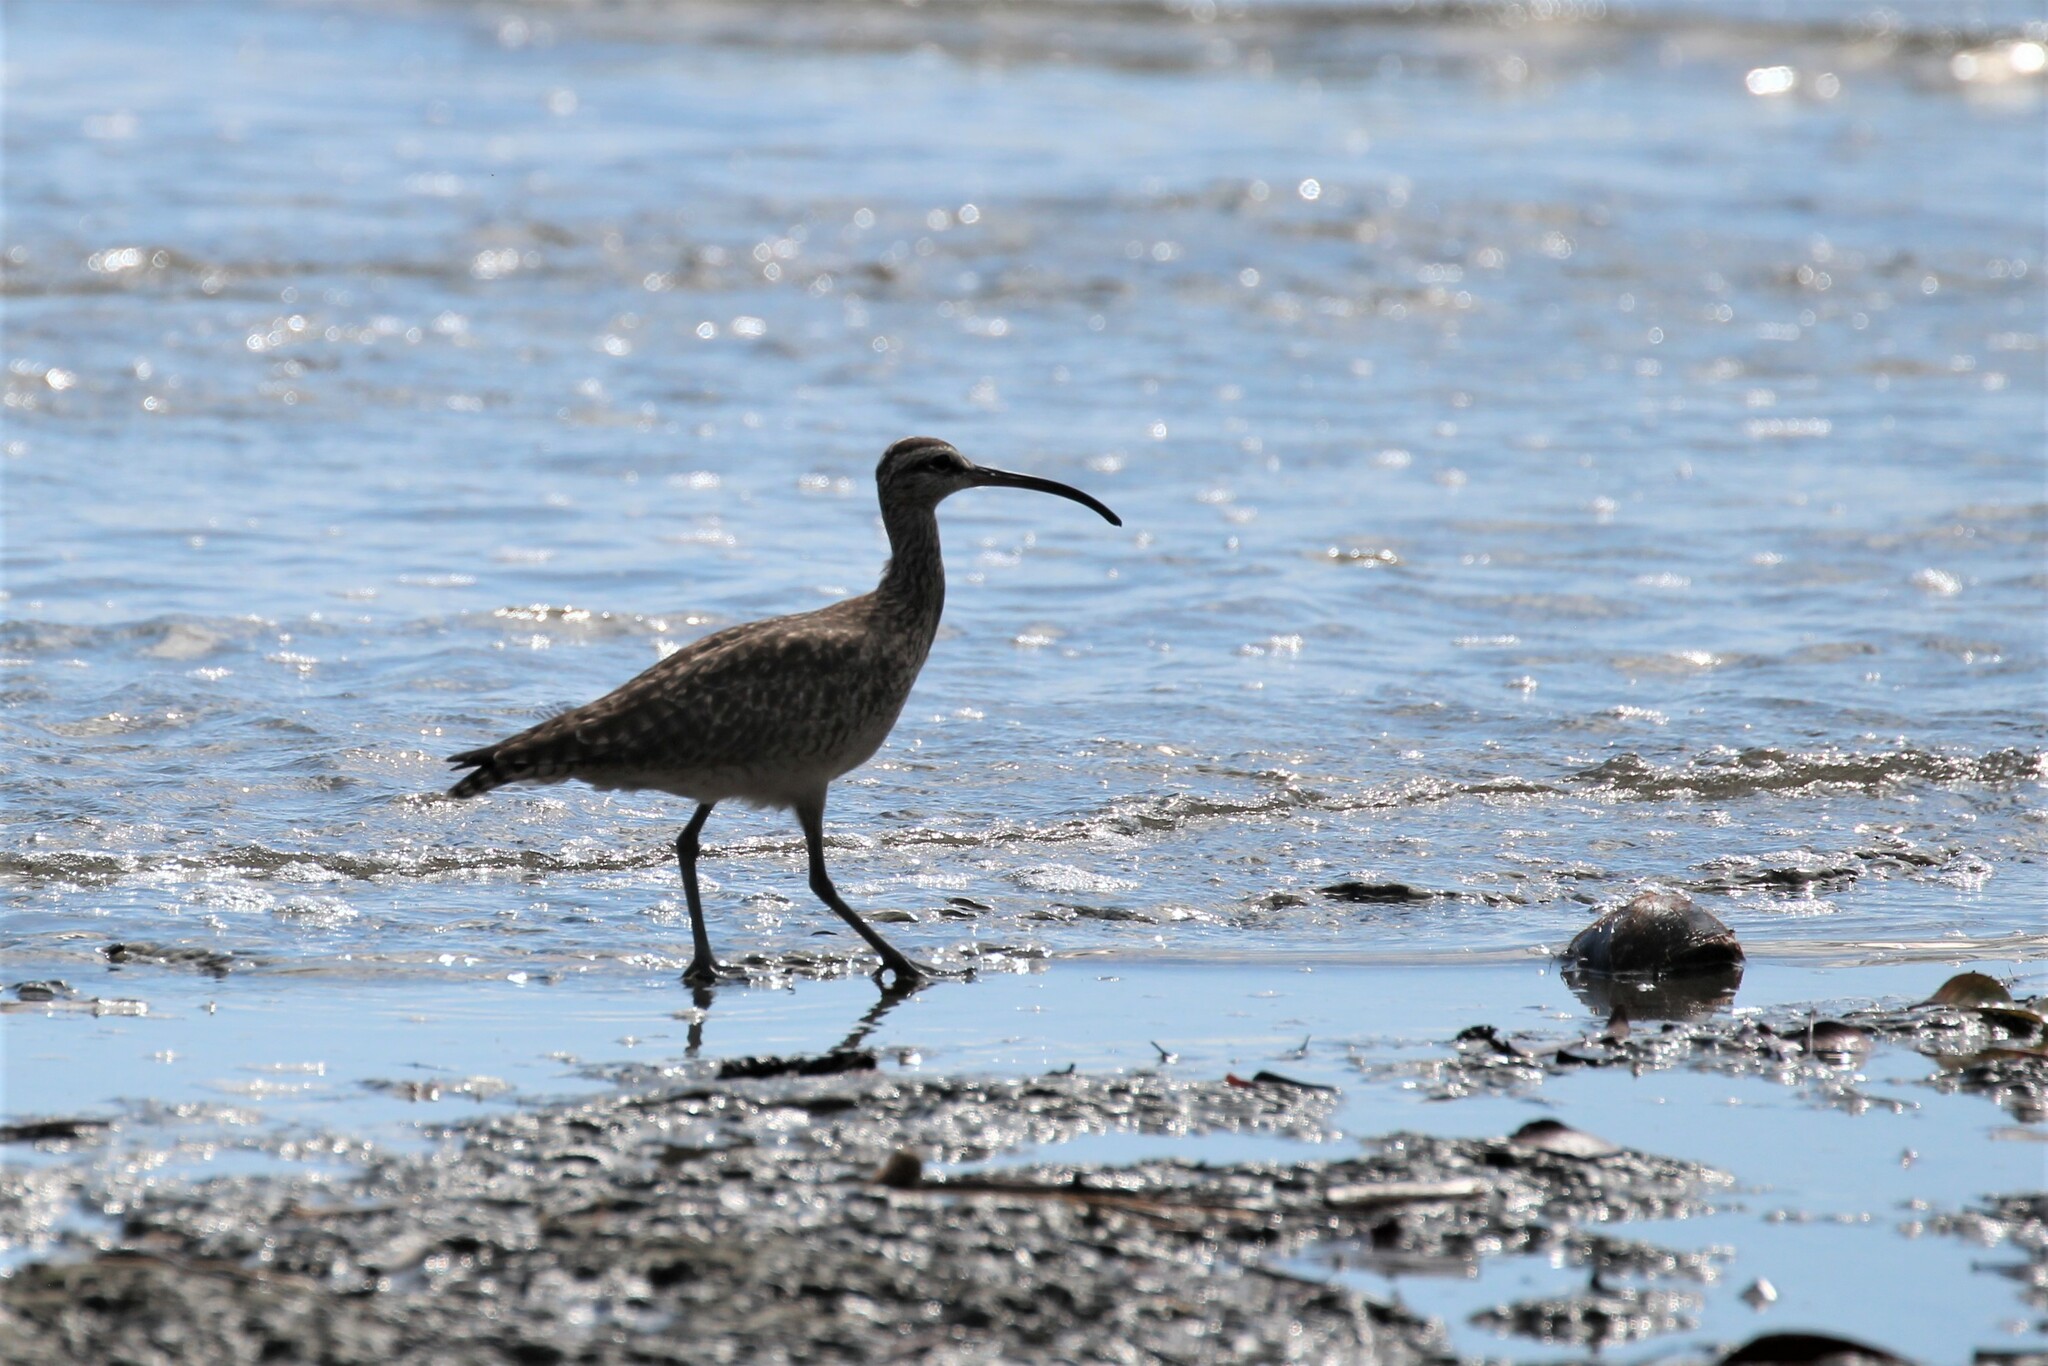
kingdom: Animalia
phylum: Chordata
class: Aves
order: Charadriiformes
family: Scolopacidae
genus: Numenius
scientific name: Numenius phaeopus
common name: Whimbrel
